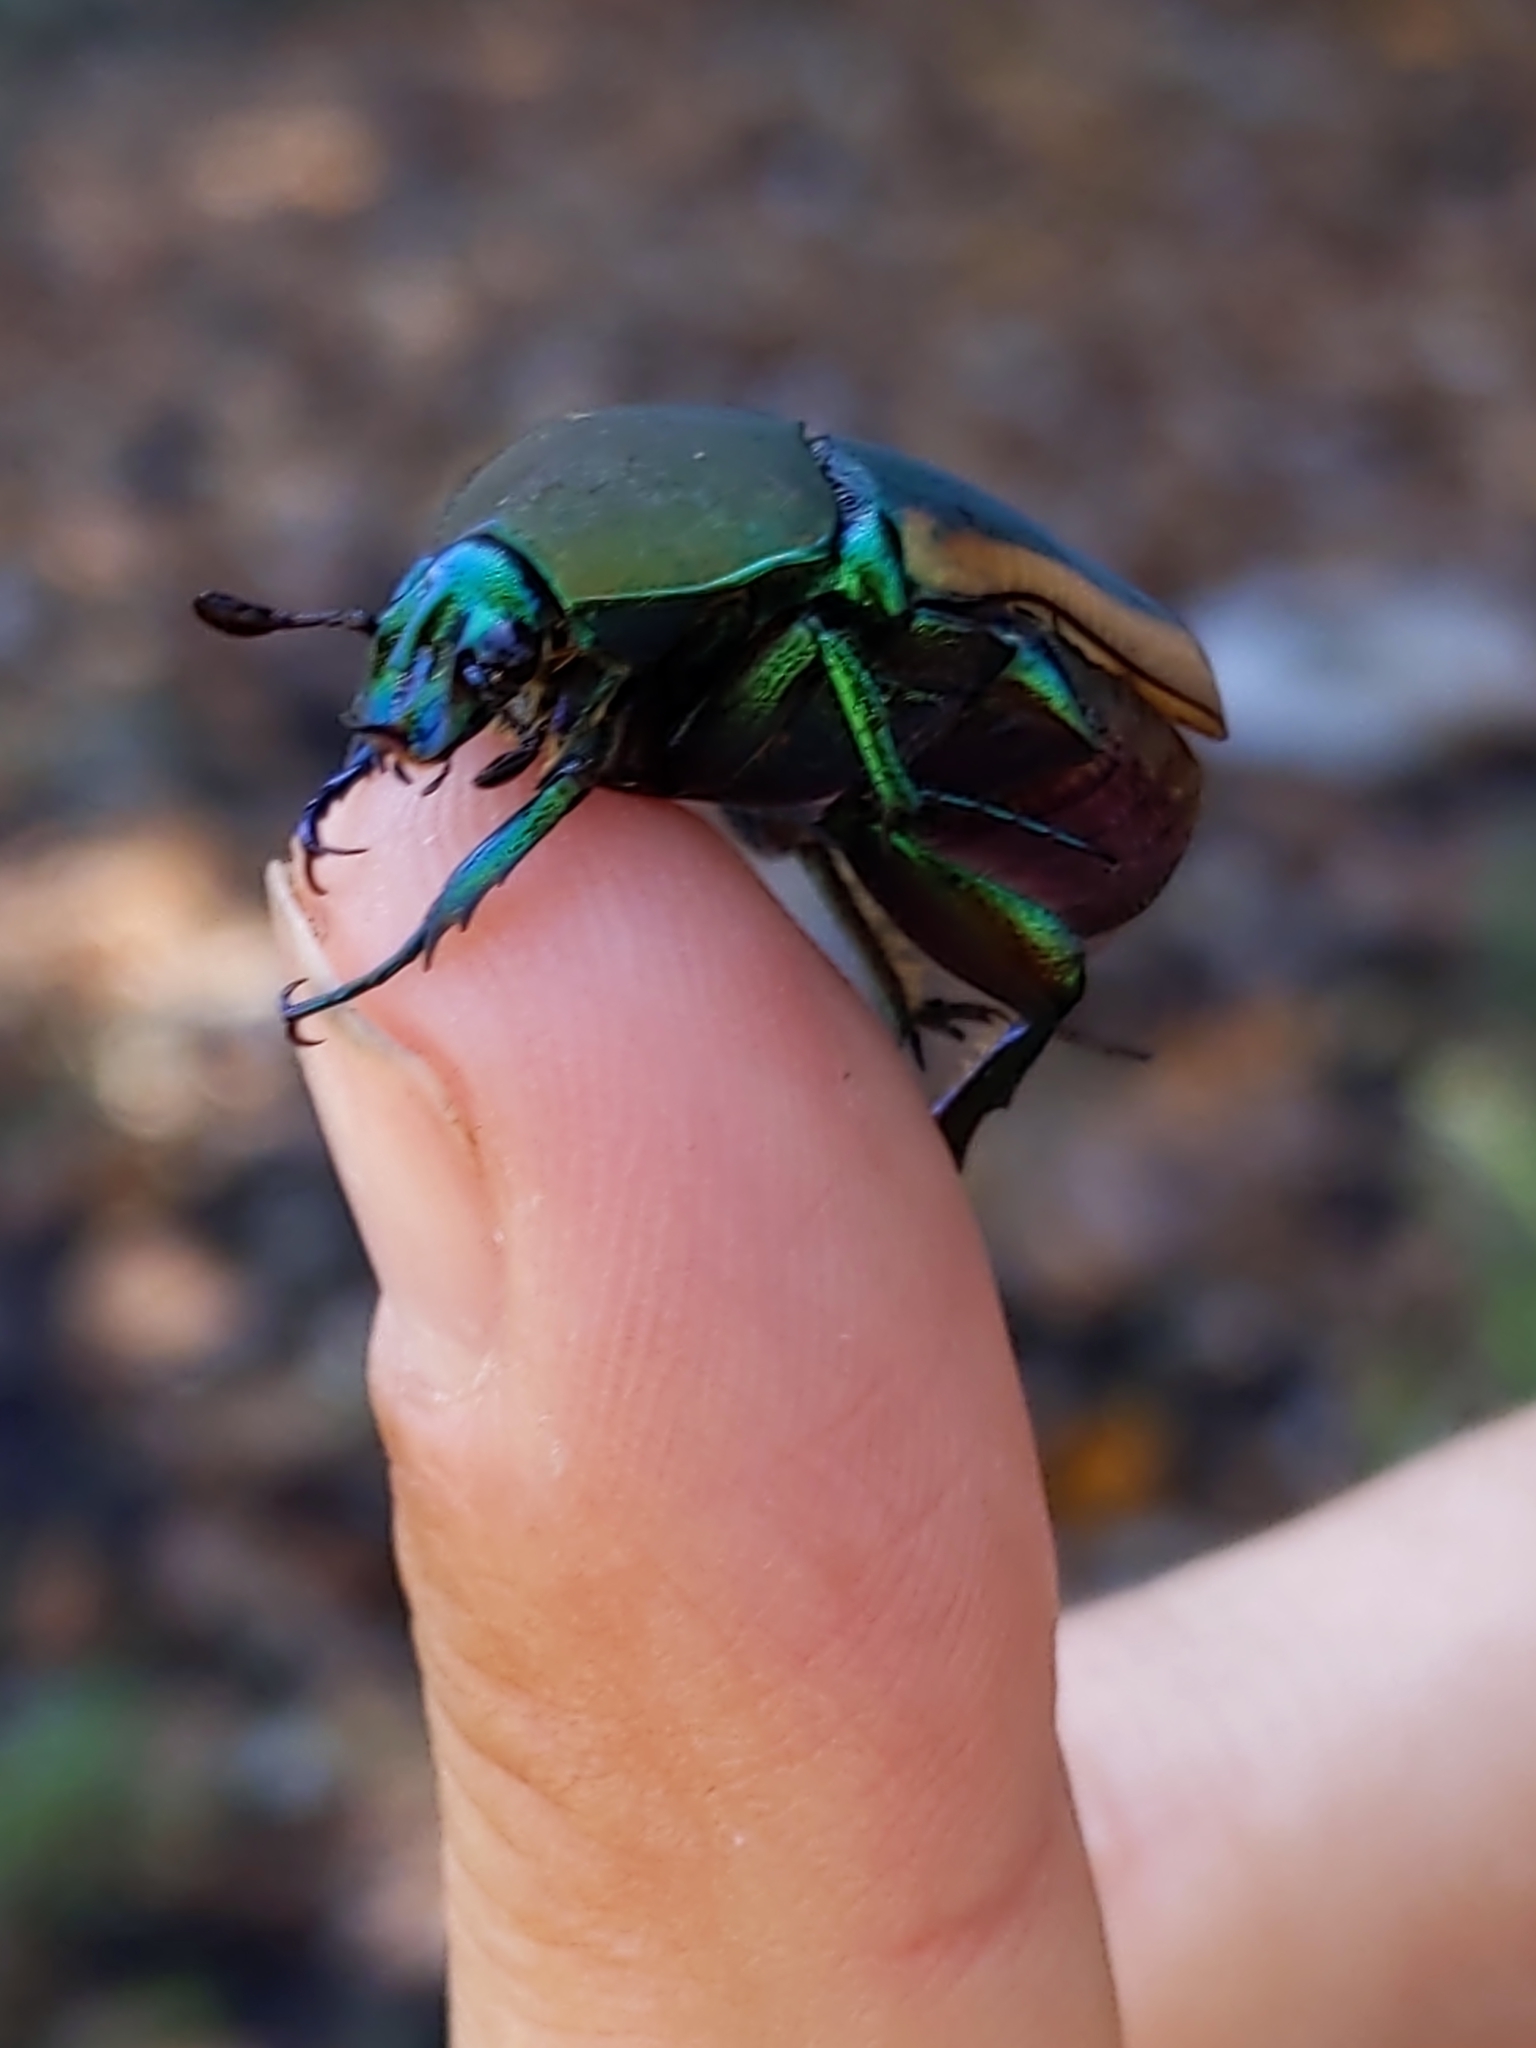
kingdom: Animalia
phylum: Arthropoda
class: Insecta
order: Coleoptera
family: Scarabaeidae
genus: Cotinis
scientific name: Cotinis mutabilis
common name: Figeater beetle
